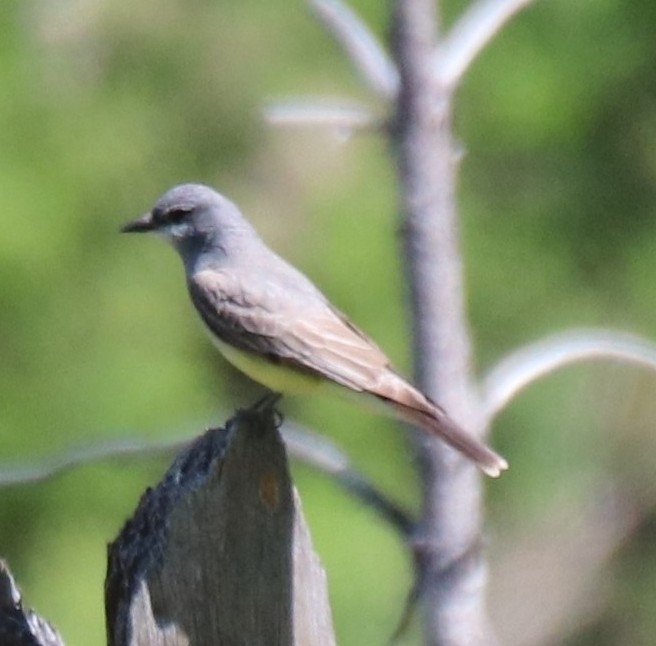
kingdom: Animalia
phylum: Chordata
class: Aves
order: Passeriformes
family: Tyrannidae
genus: Tyrannus
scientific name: Tyrannus vociferans
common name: Cassin's kingbird
